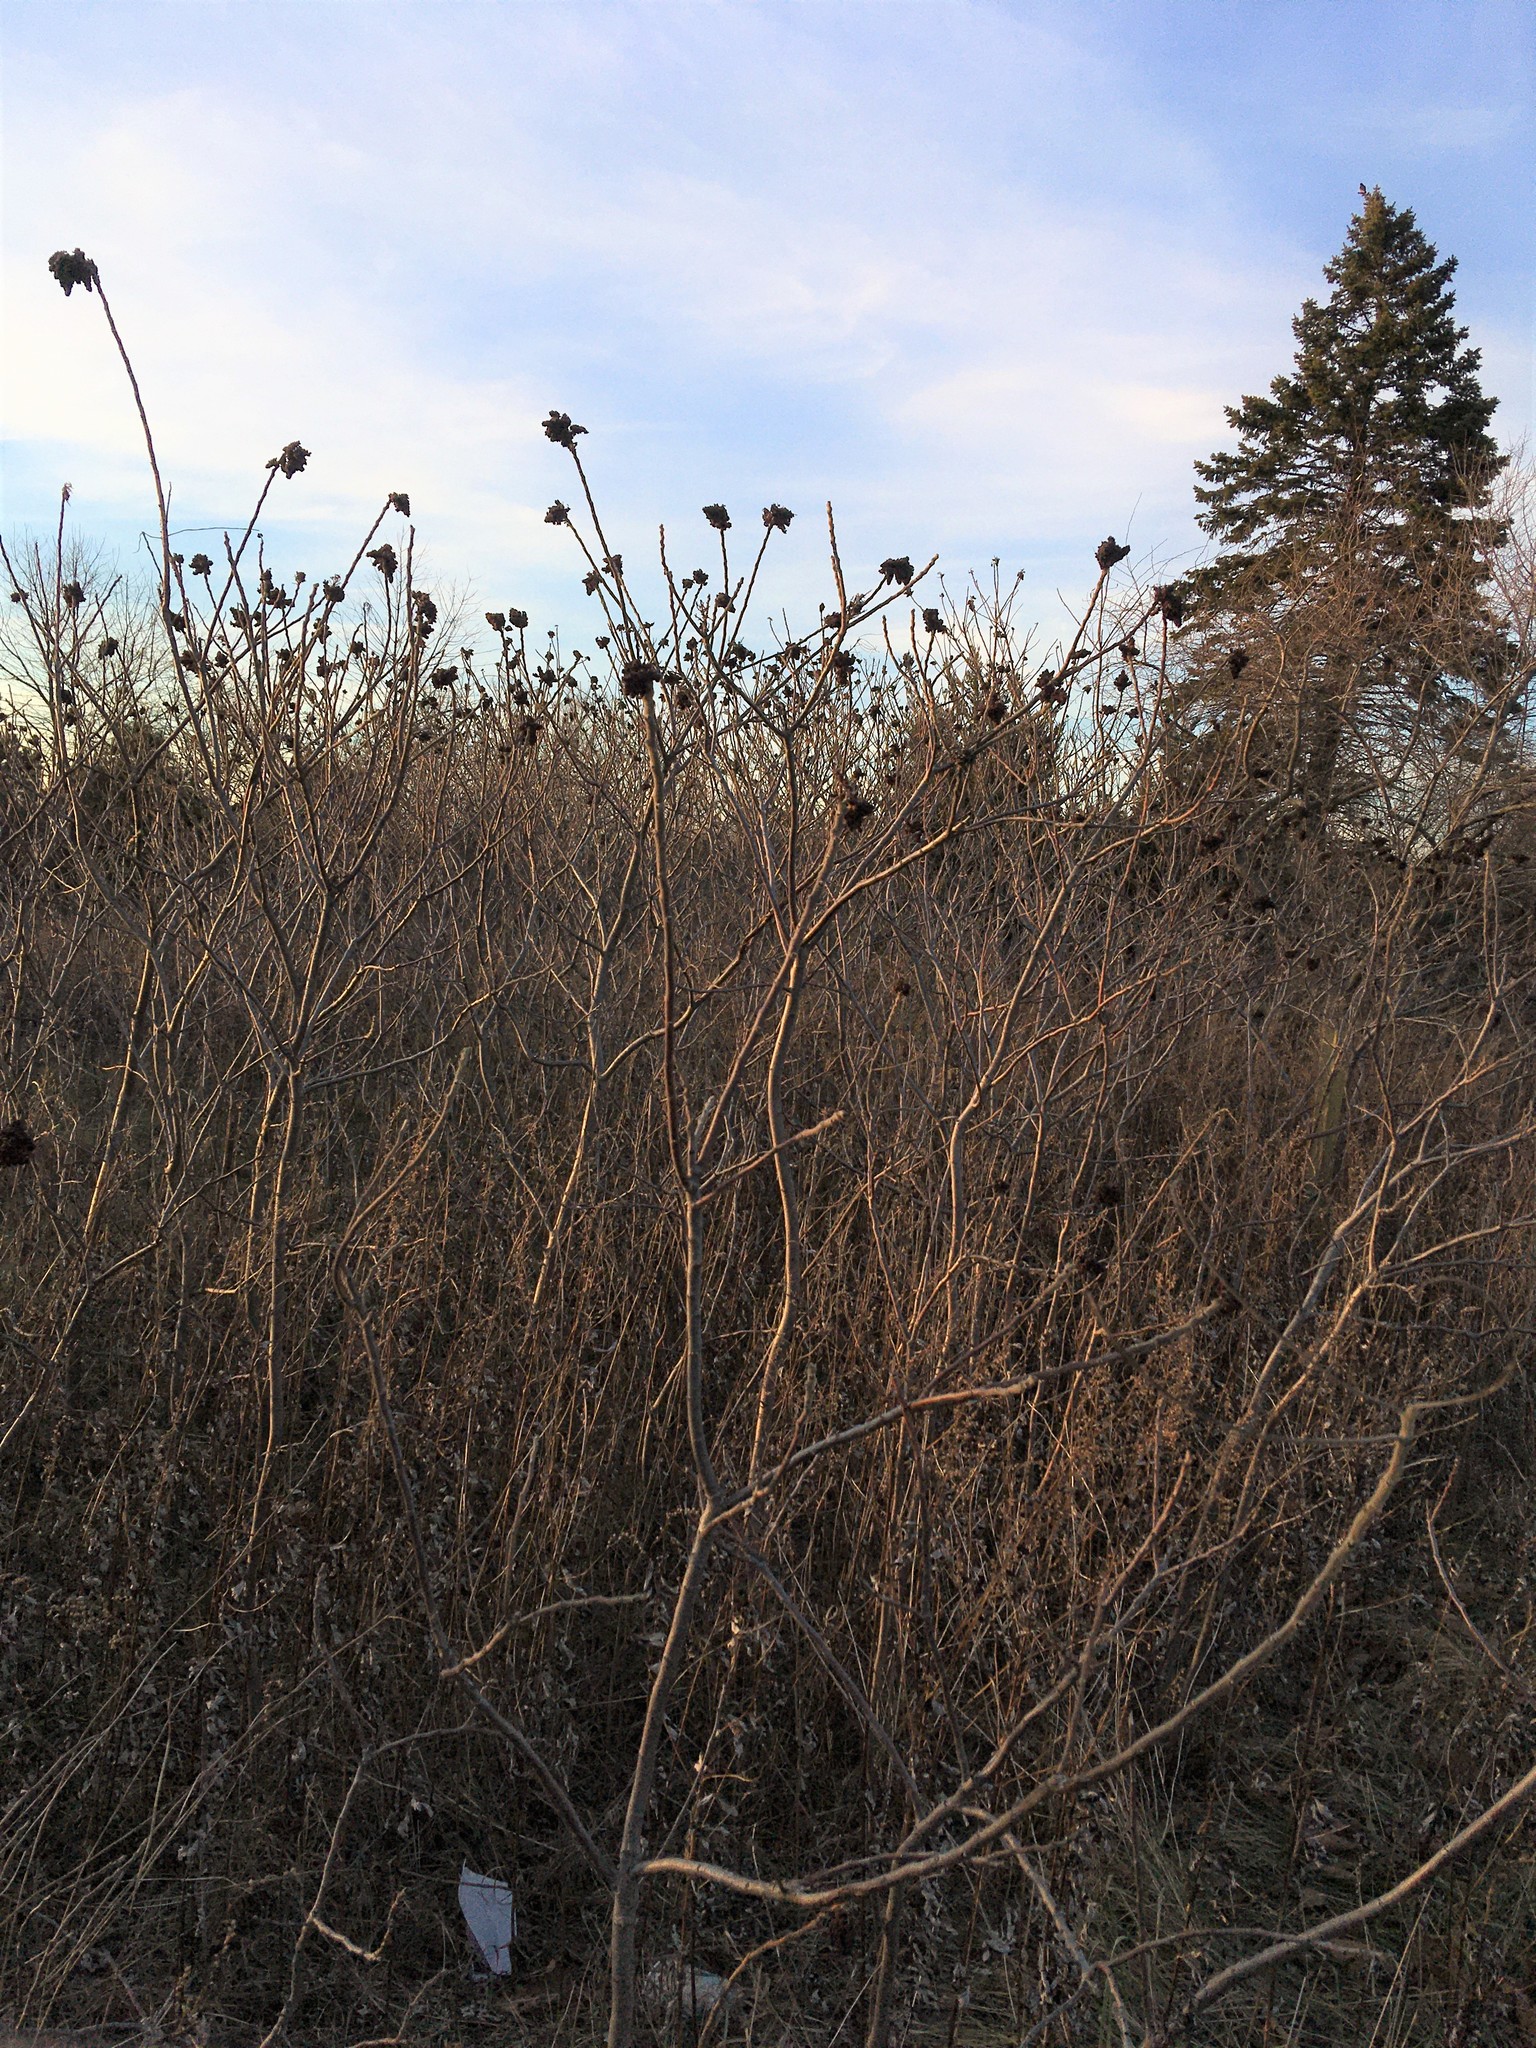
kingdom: Plantae
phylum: Tracheophyta
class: Magnoliopsida
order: Sapindales
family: Anacardiaceae
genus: Rhus
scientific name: Rhus copallina
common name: Shining sumac
